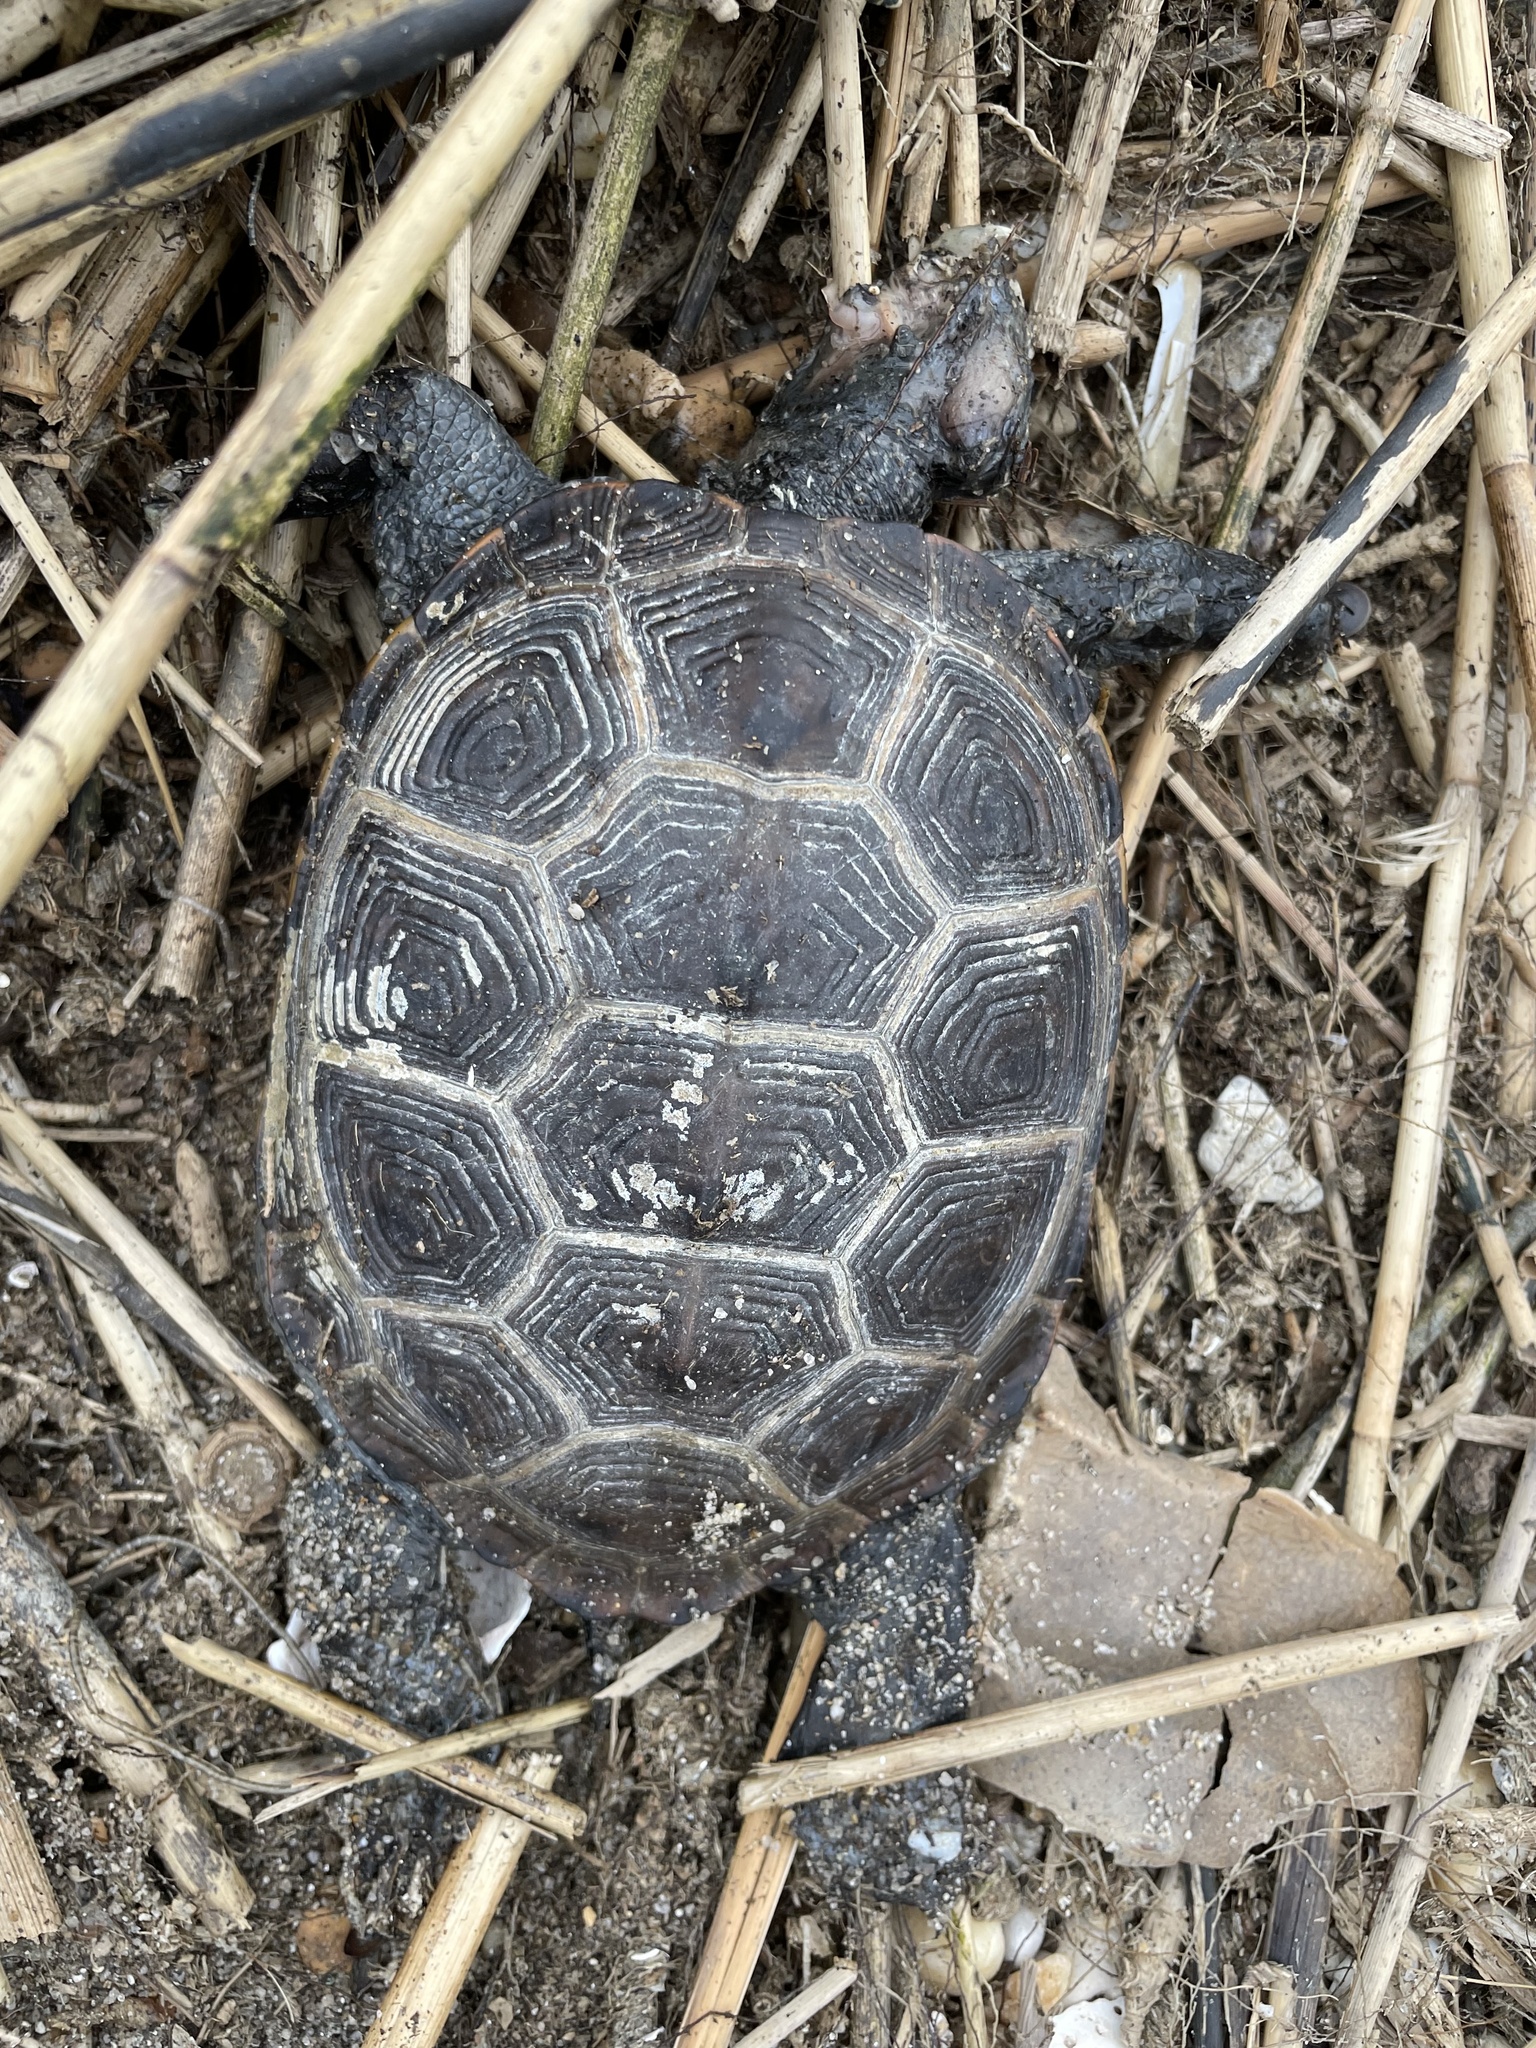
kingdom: Animalia
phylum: Chordata
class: Testudines
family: Emydidae
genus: Malaclemys
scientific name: Malaclemys terrapin
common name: Diamondback terrapin
